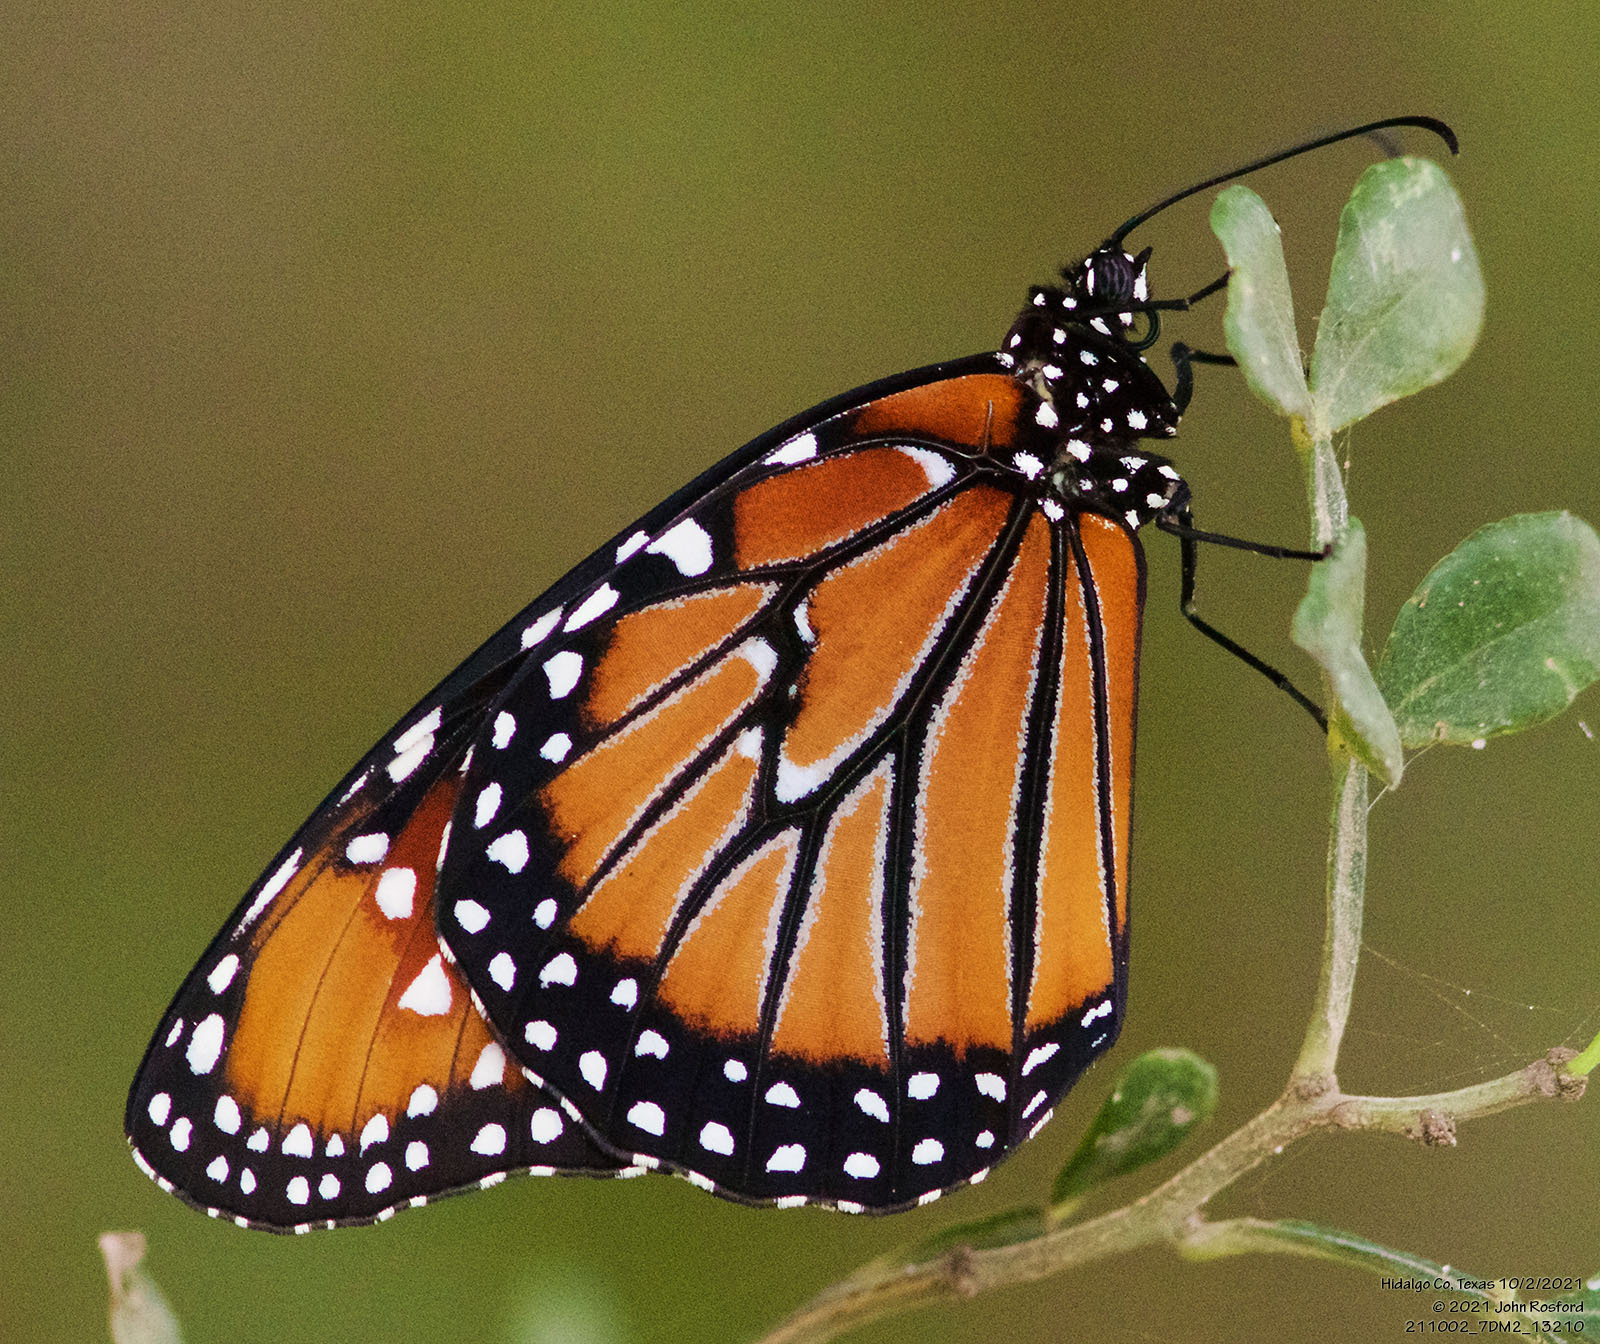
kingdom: Animalia
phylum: Arthropoda
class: Insecta
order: Lepidoptera
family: Nymphalidae
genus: Danaus
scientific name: Danaus gilippus
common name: Queen
